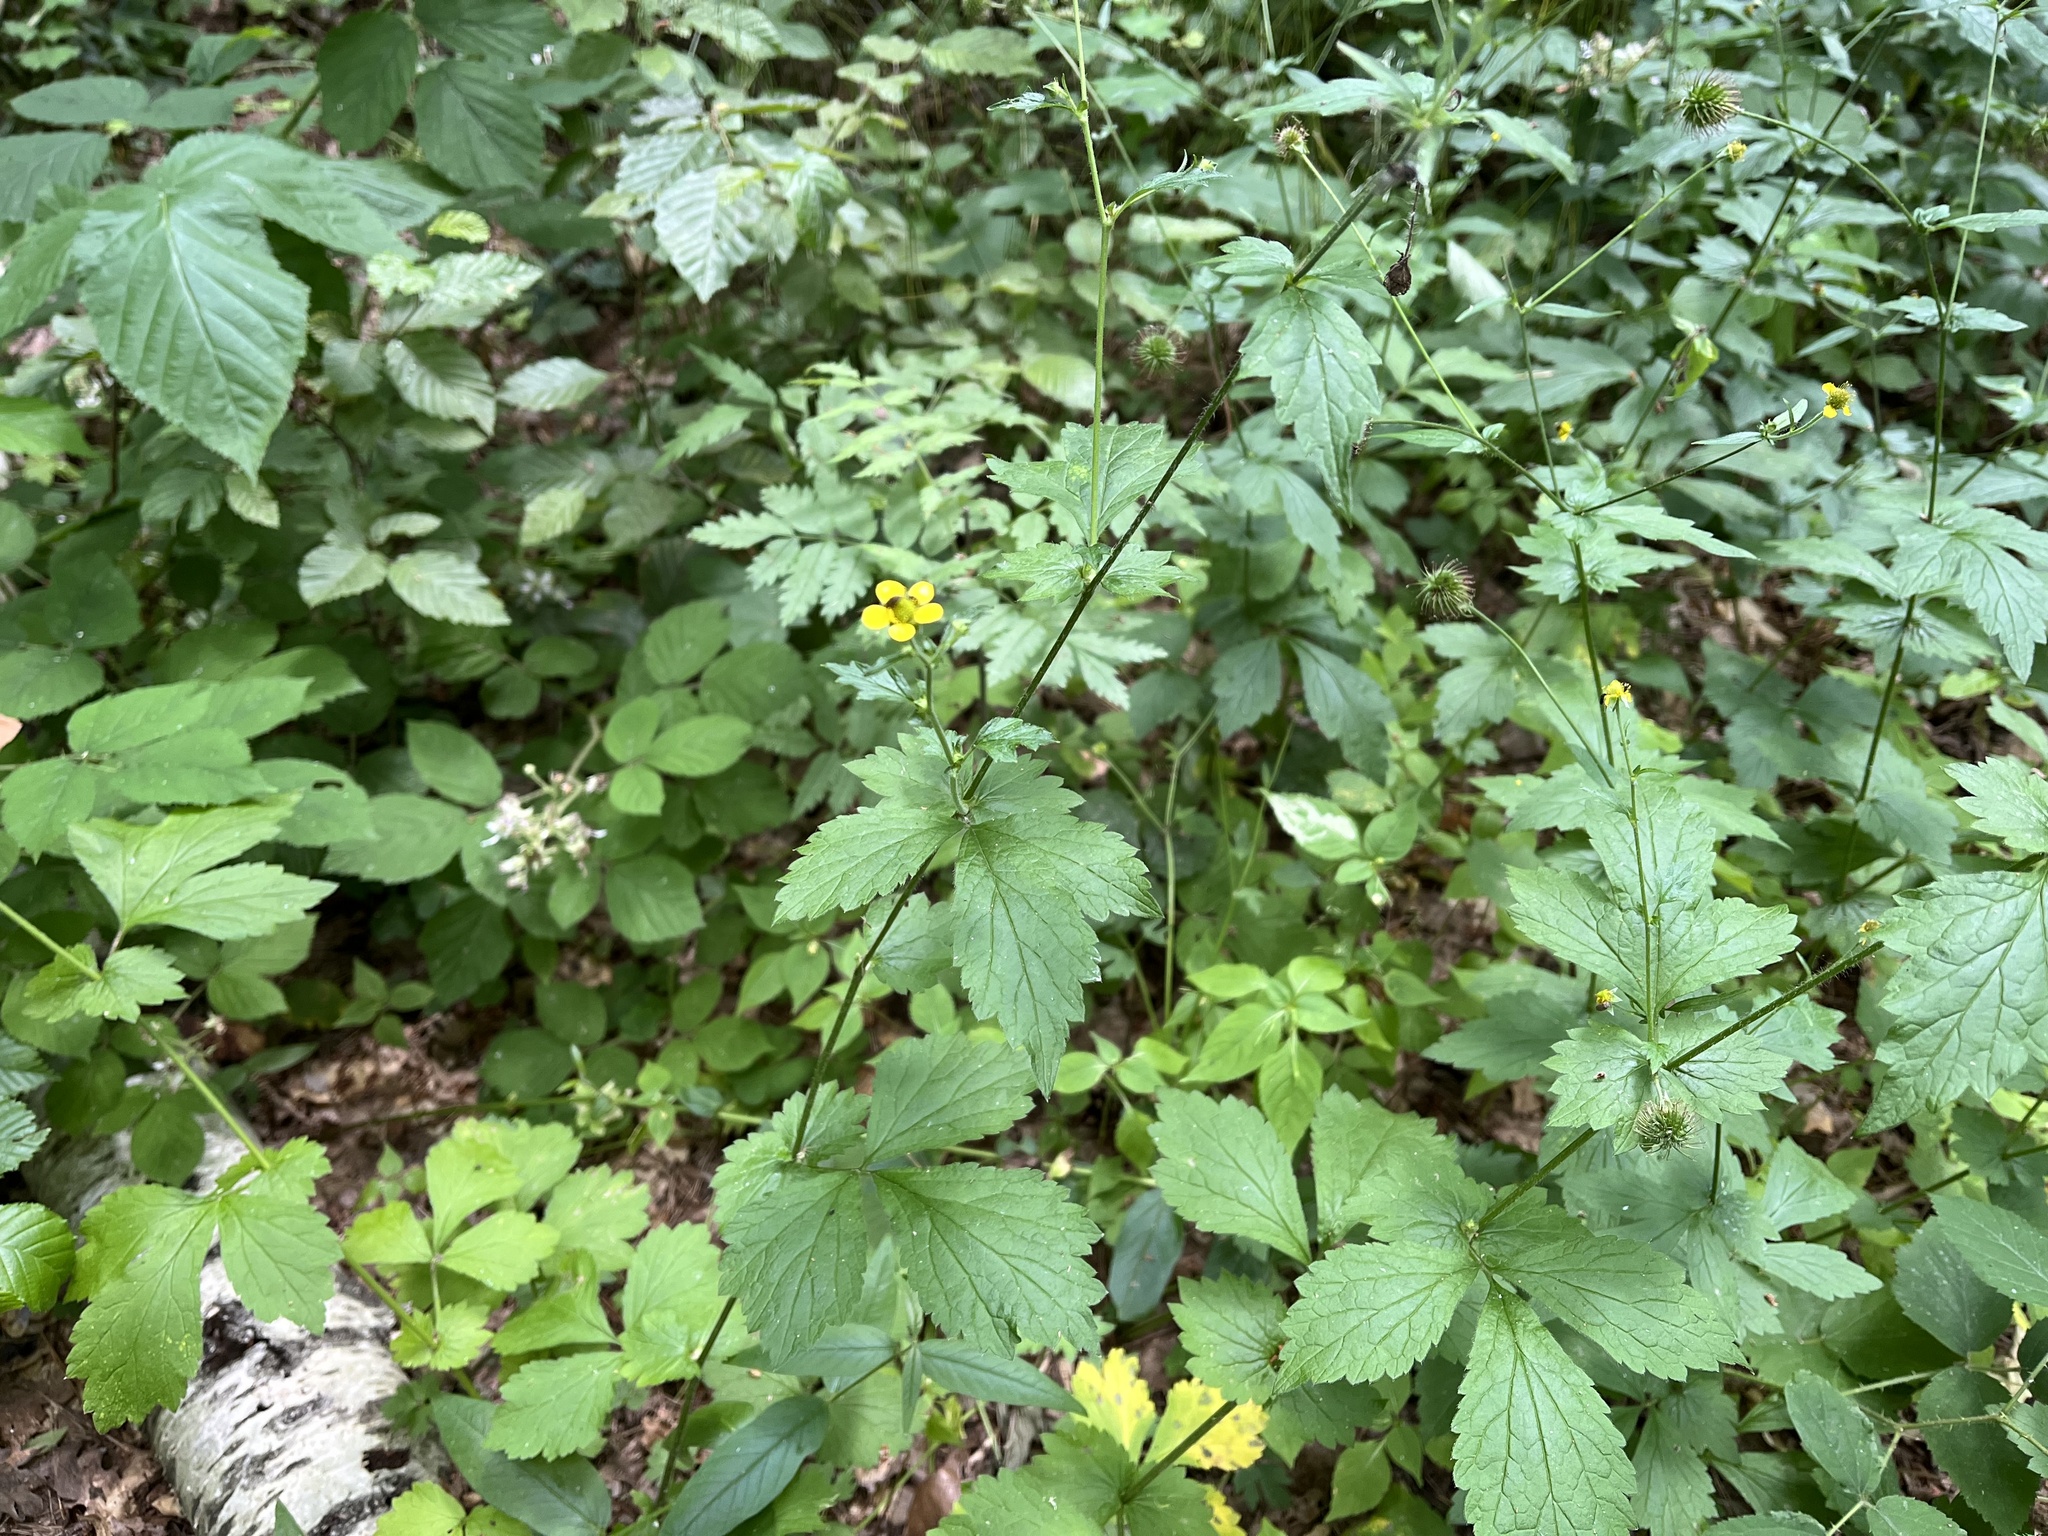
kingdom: Plantae
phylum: Tracheophyta
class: Magnoliopsida
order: Rosales
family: Rosaceae
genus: Geum
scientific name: Geum urbanum
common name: Wood avens
